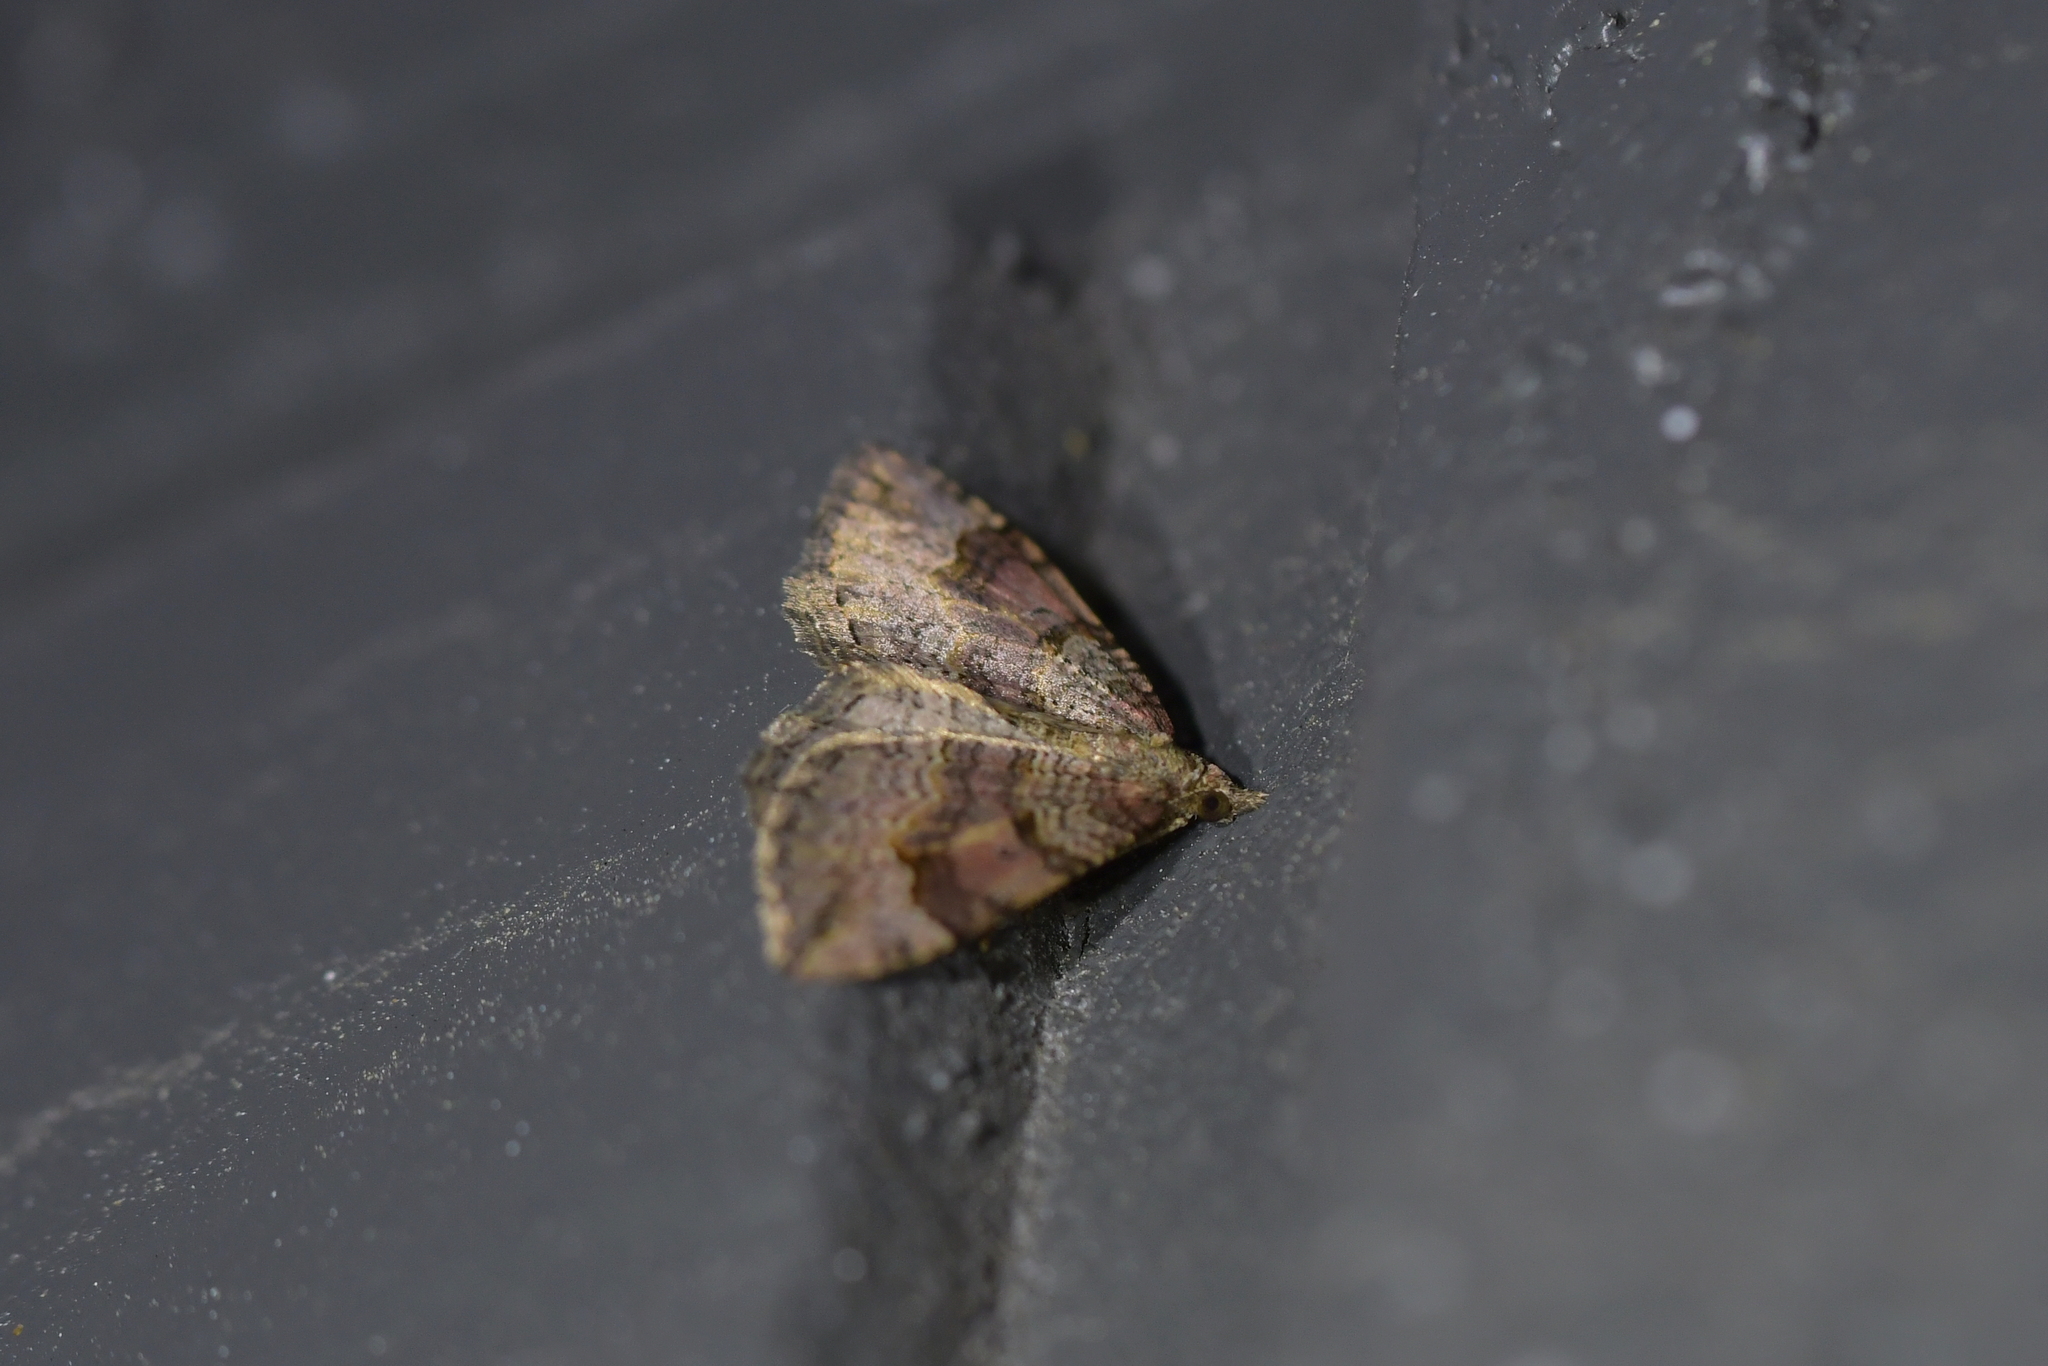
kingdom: Animalia
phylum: Arthropoda
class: Insecta
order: Lepidoptera
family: Geometridae
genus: Epyaxa
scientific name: Epyaxa rosearia
